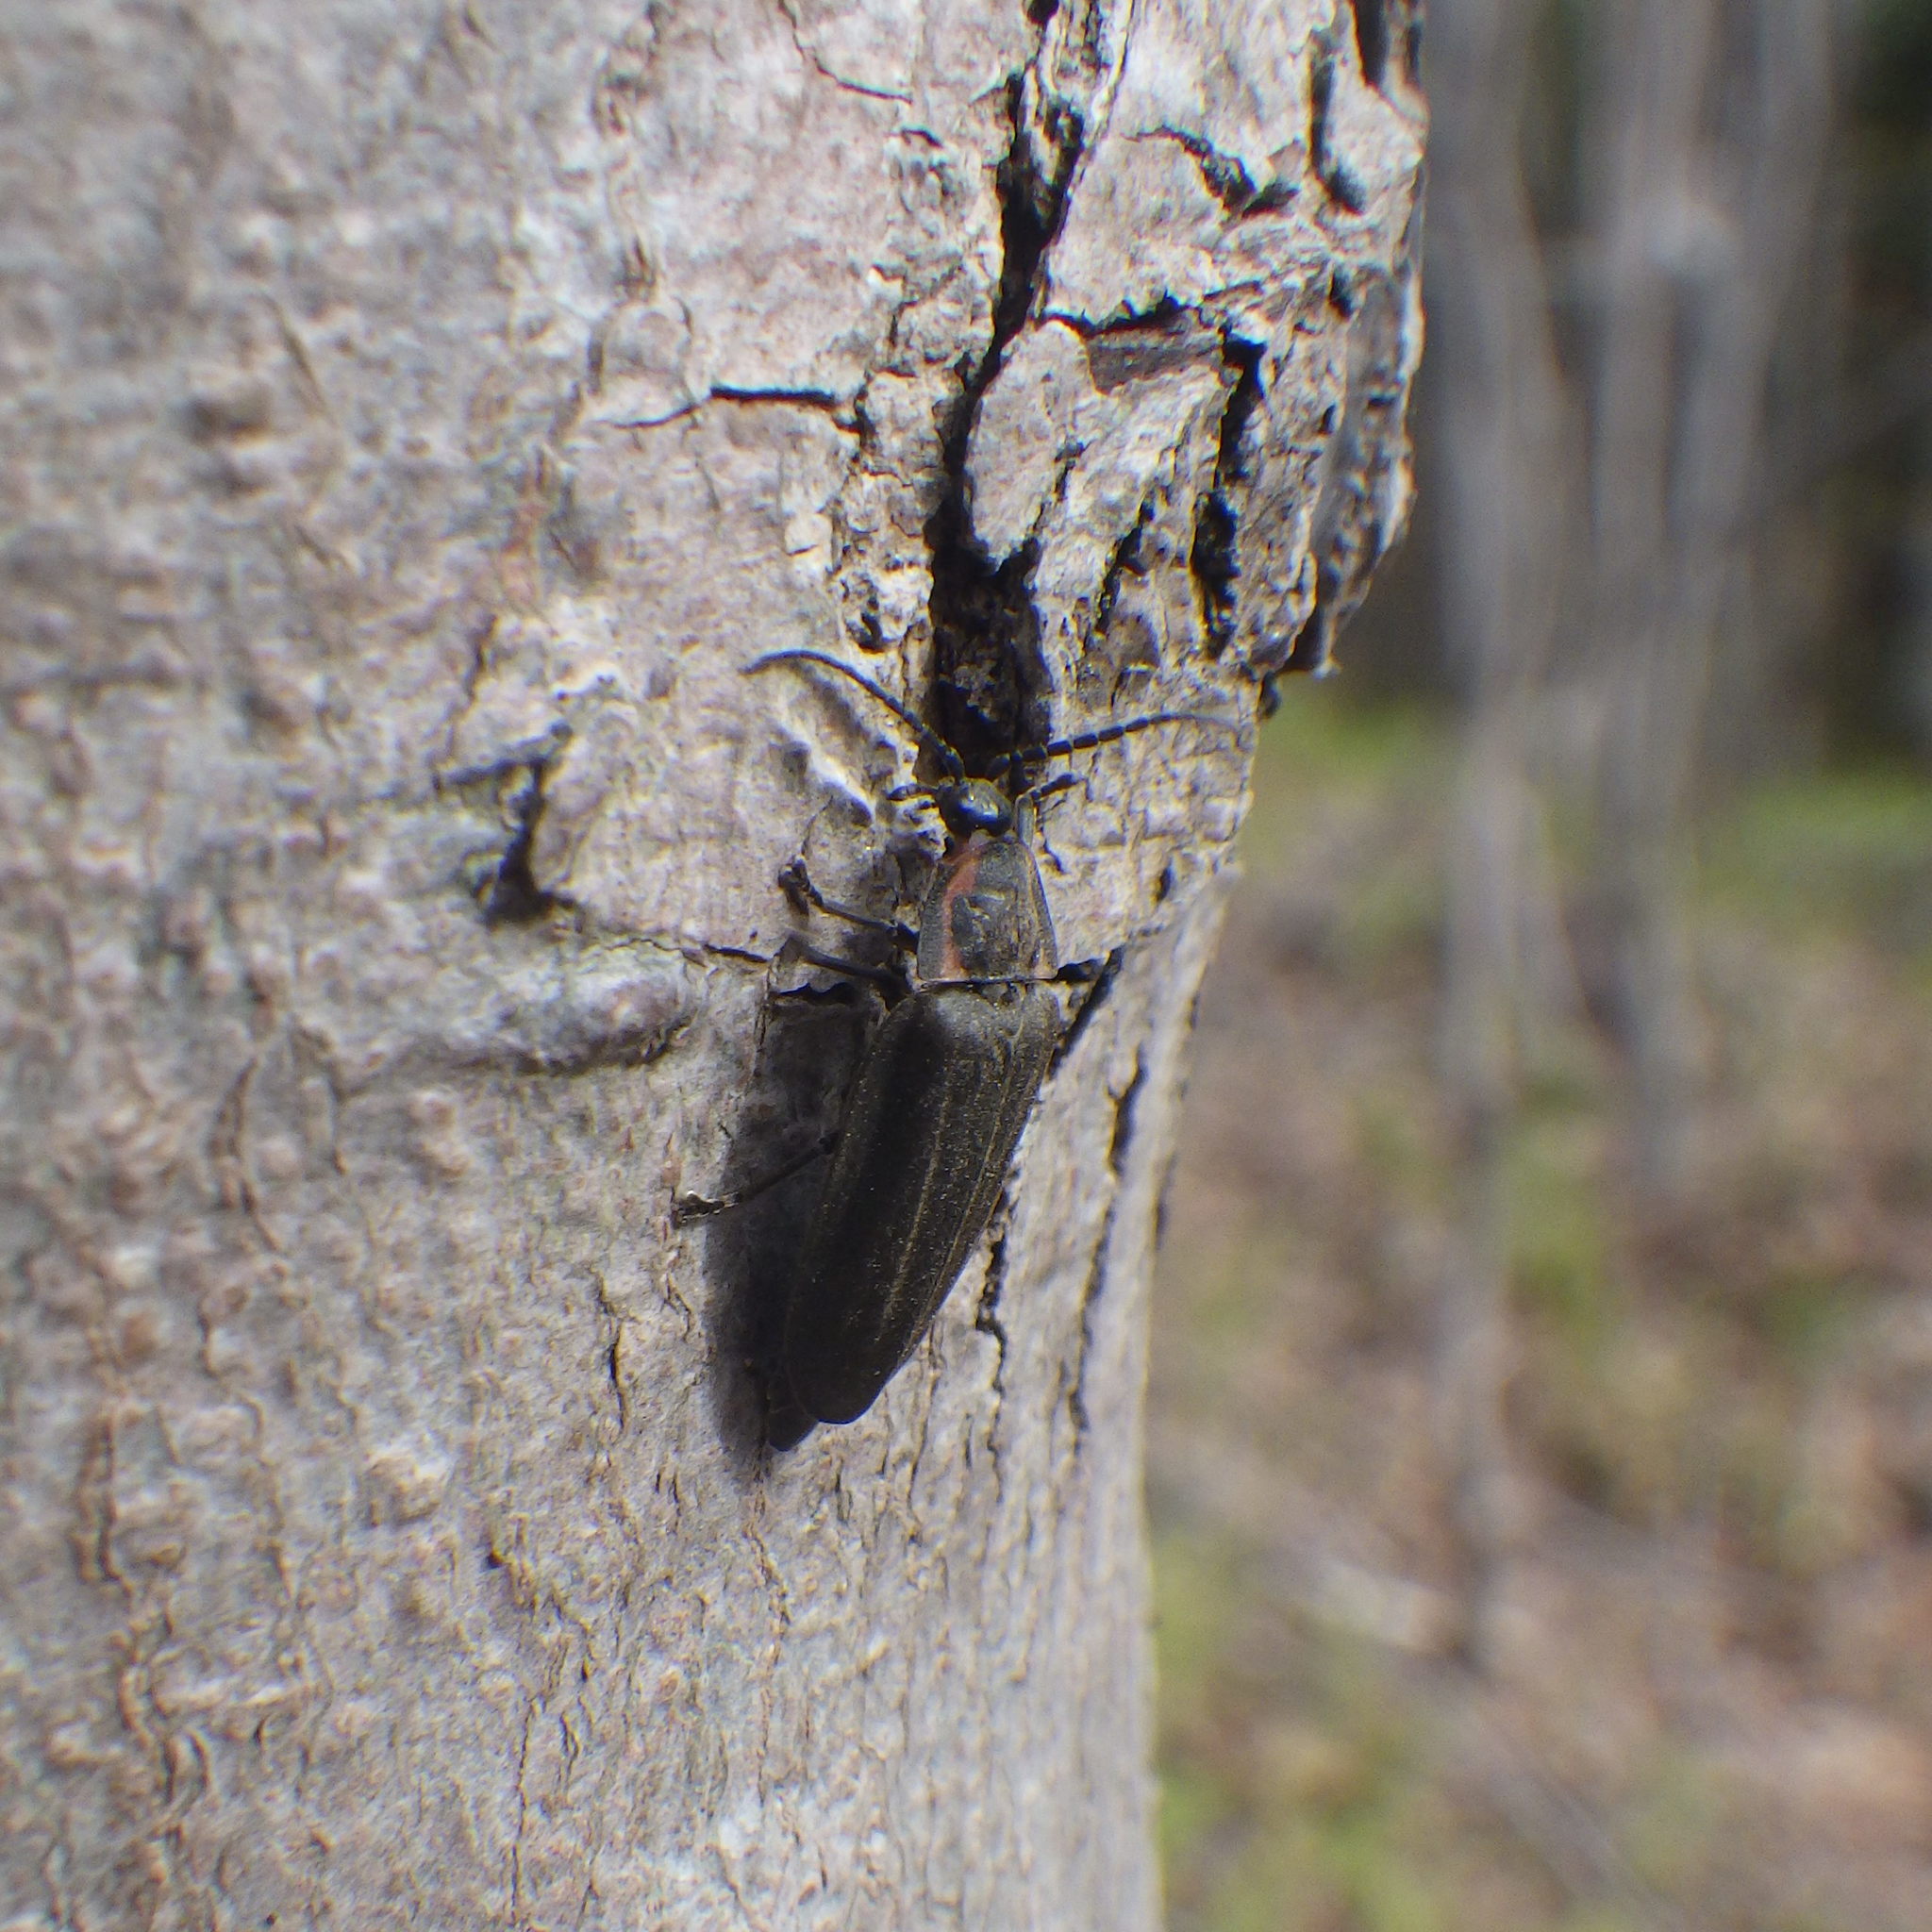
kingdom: Animalia
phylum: Arthropoda
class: Insecta
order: Coleoptera
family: Lampyridae
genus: Photinus
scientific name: Photinus corrusca
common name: Winter firefly
